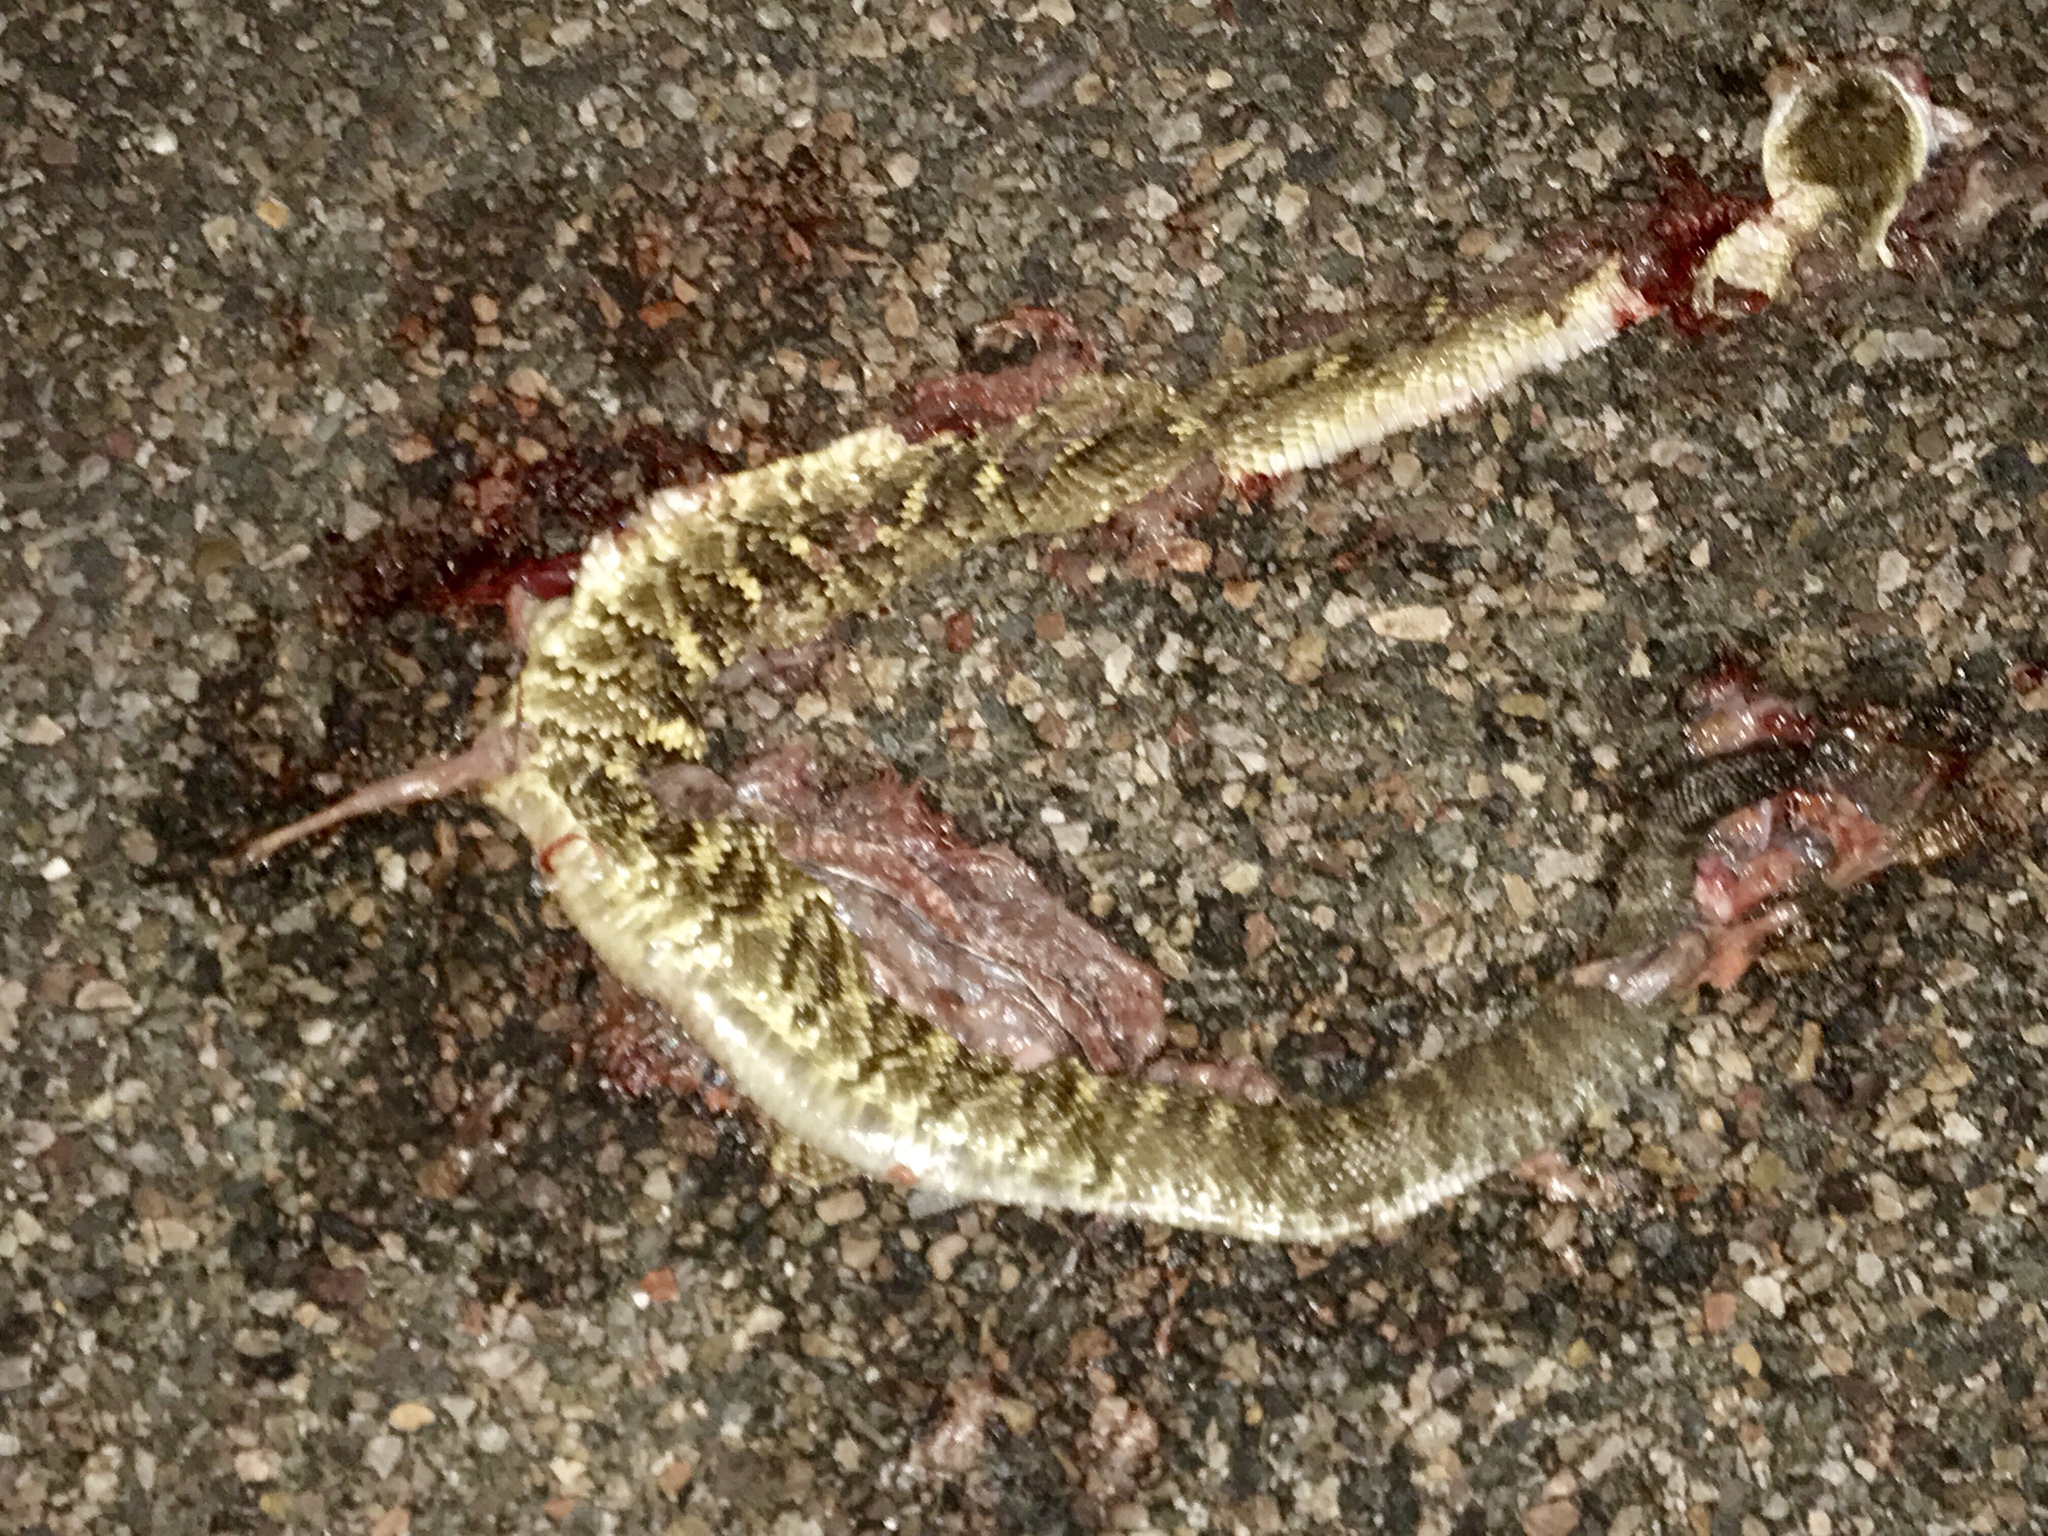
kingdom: Animalia
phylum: Chordata
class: Squamata
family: Viperidae
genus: Crotalus
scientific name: Crotalus molossus
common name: Black tailed rattlesnake
